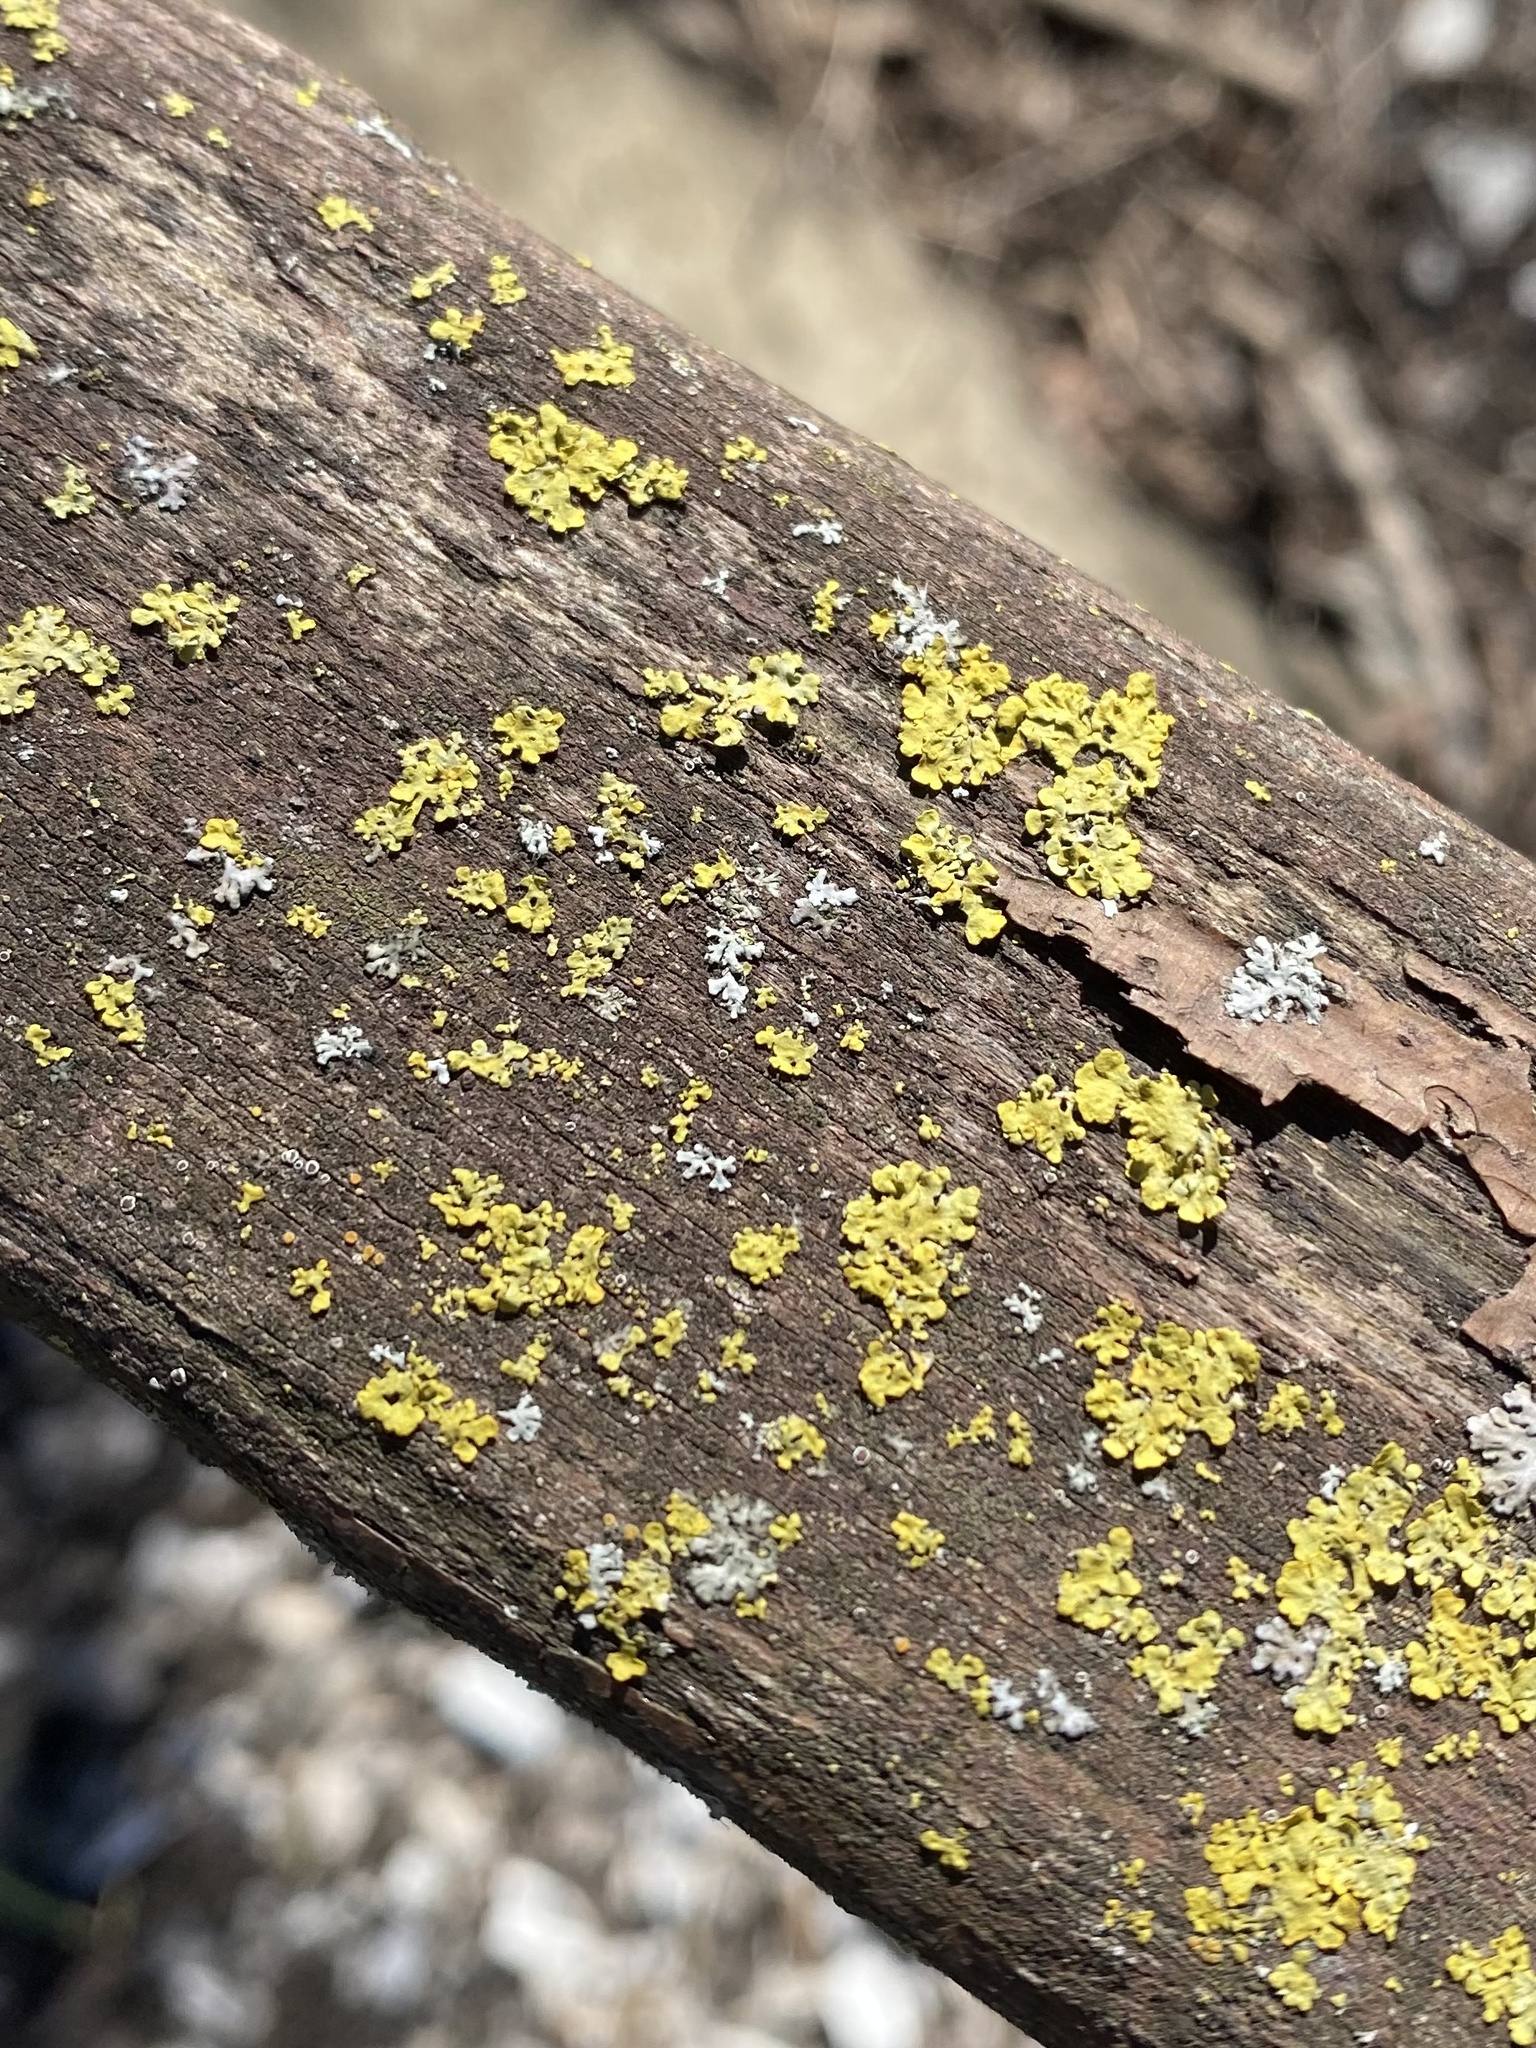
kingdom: Fungi
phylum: Ascomycota
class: Lecanoromycetes
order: Teloschistales
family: Teloschistaceae
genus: Xanthoria
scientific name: Xanthoria parietina
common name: Common orange lichen
